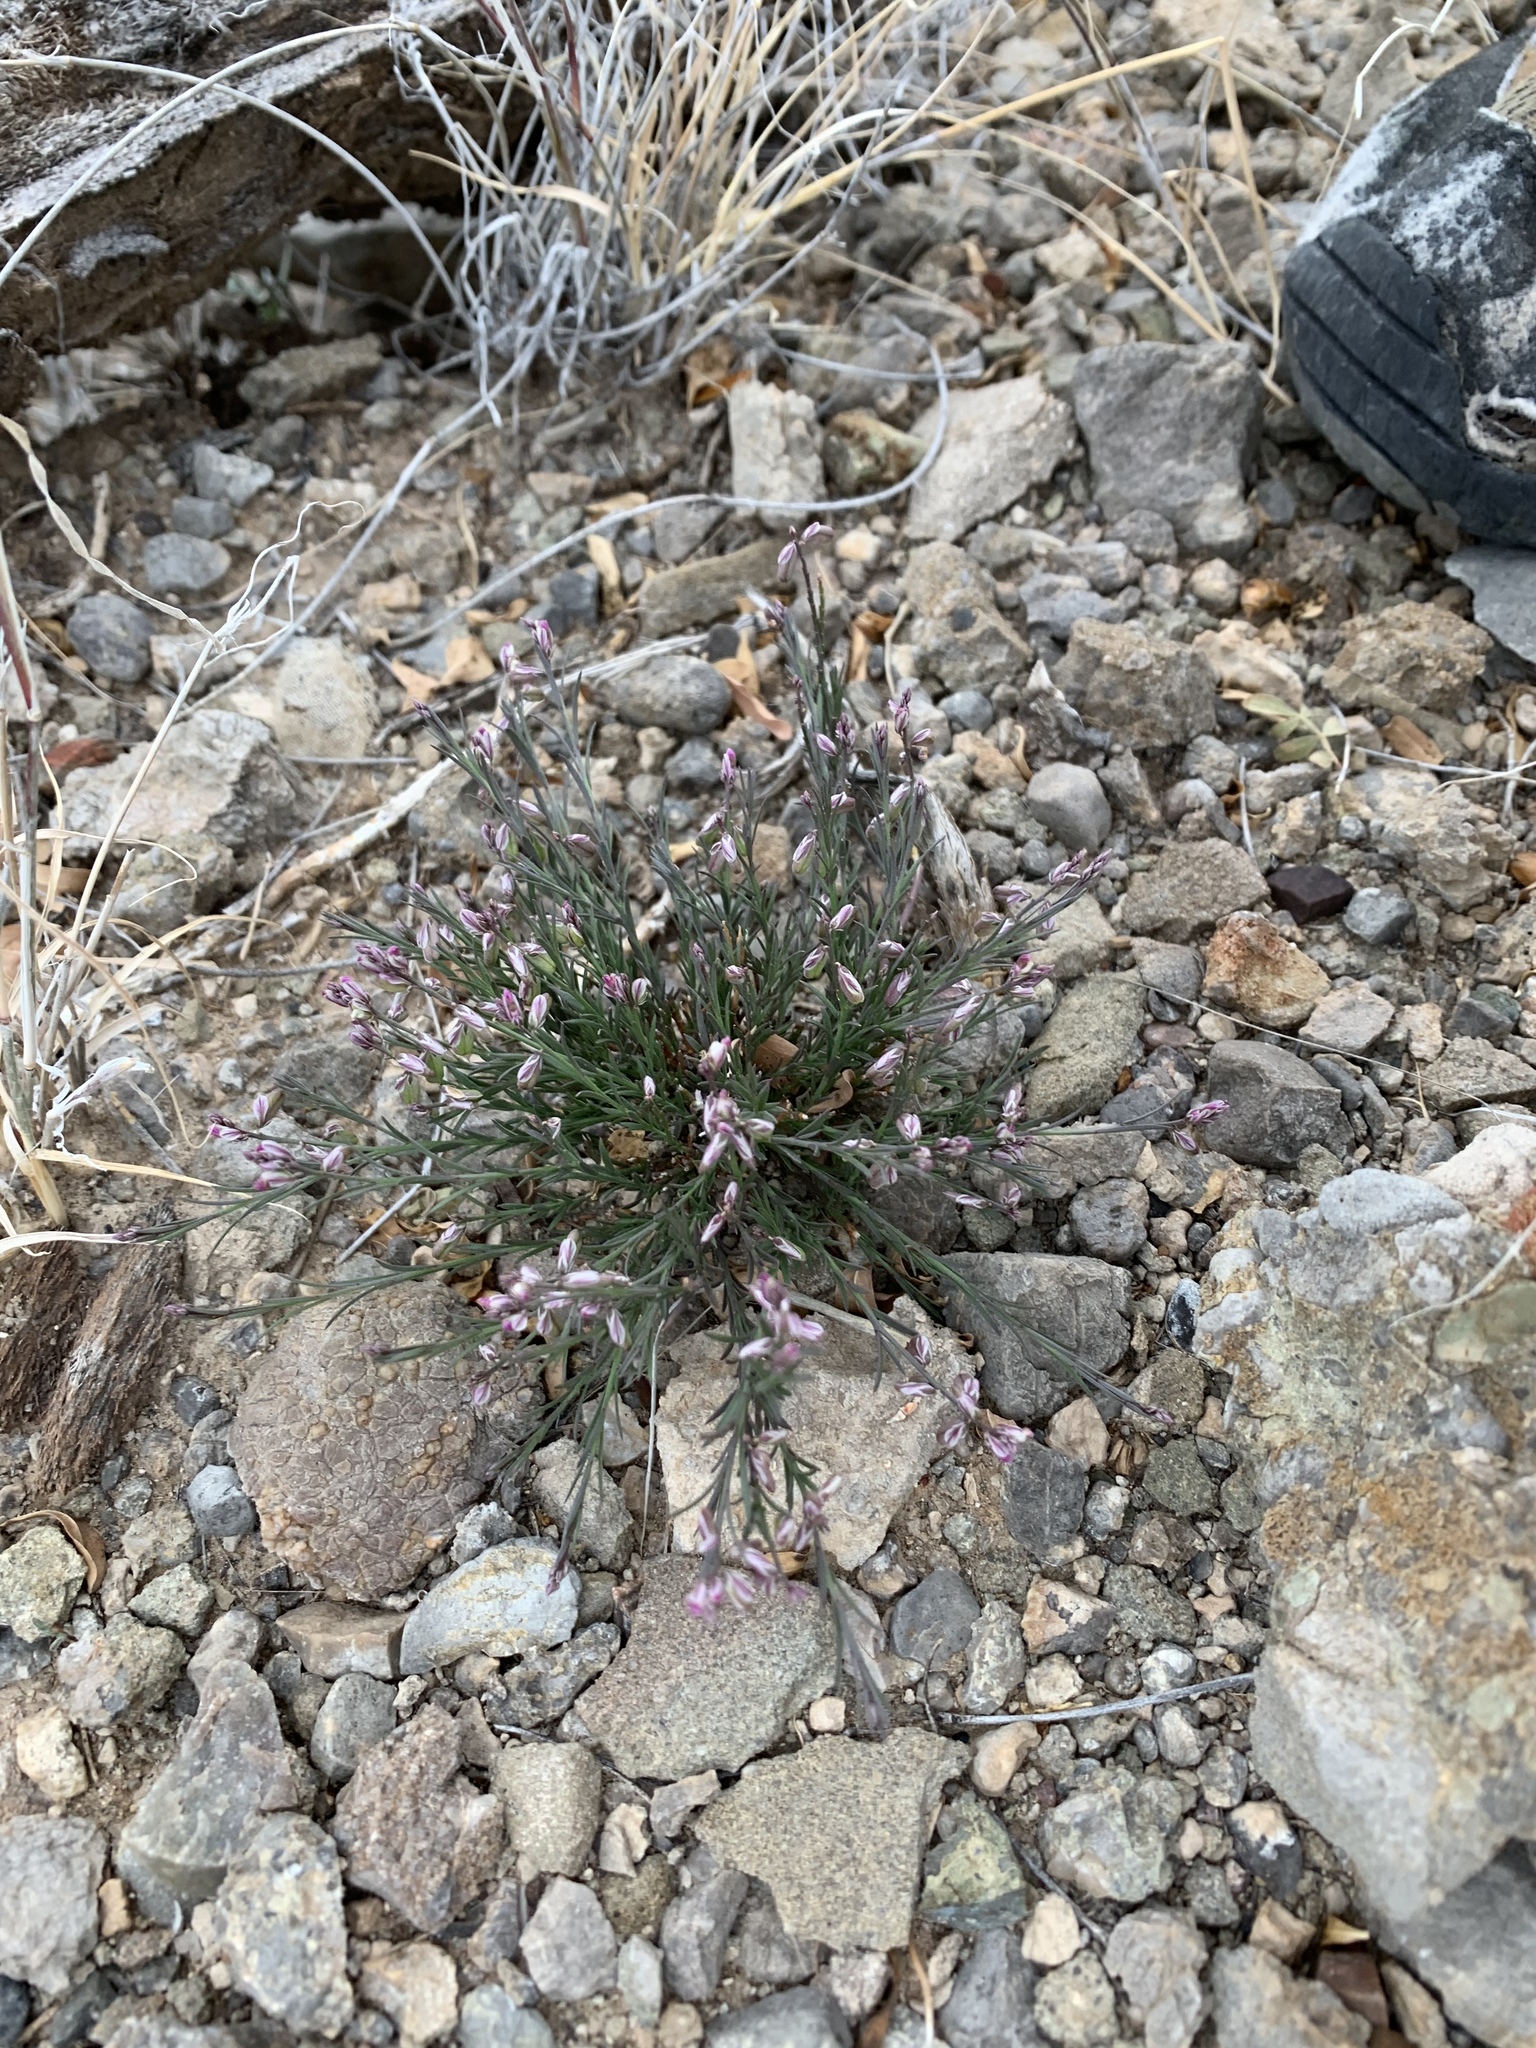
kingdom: Plantae
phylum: Tracheophyta
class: Magnoliopsida
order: Fabales
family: Polygalaceae
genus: Polygala
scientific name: Polygala scoparioides
